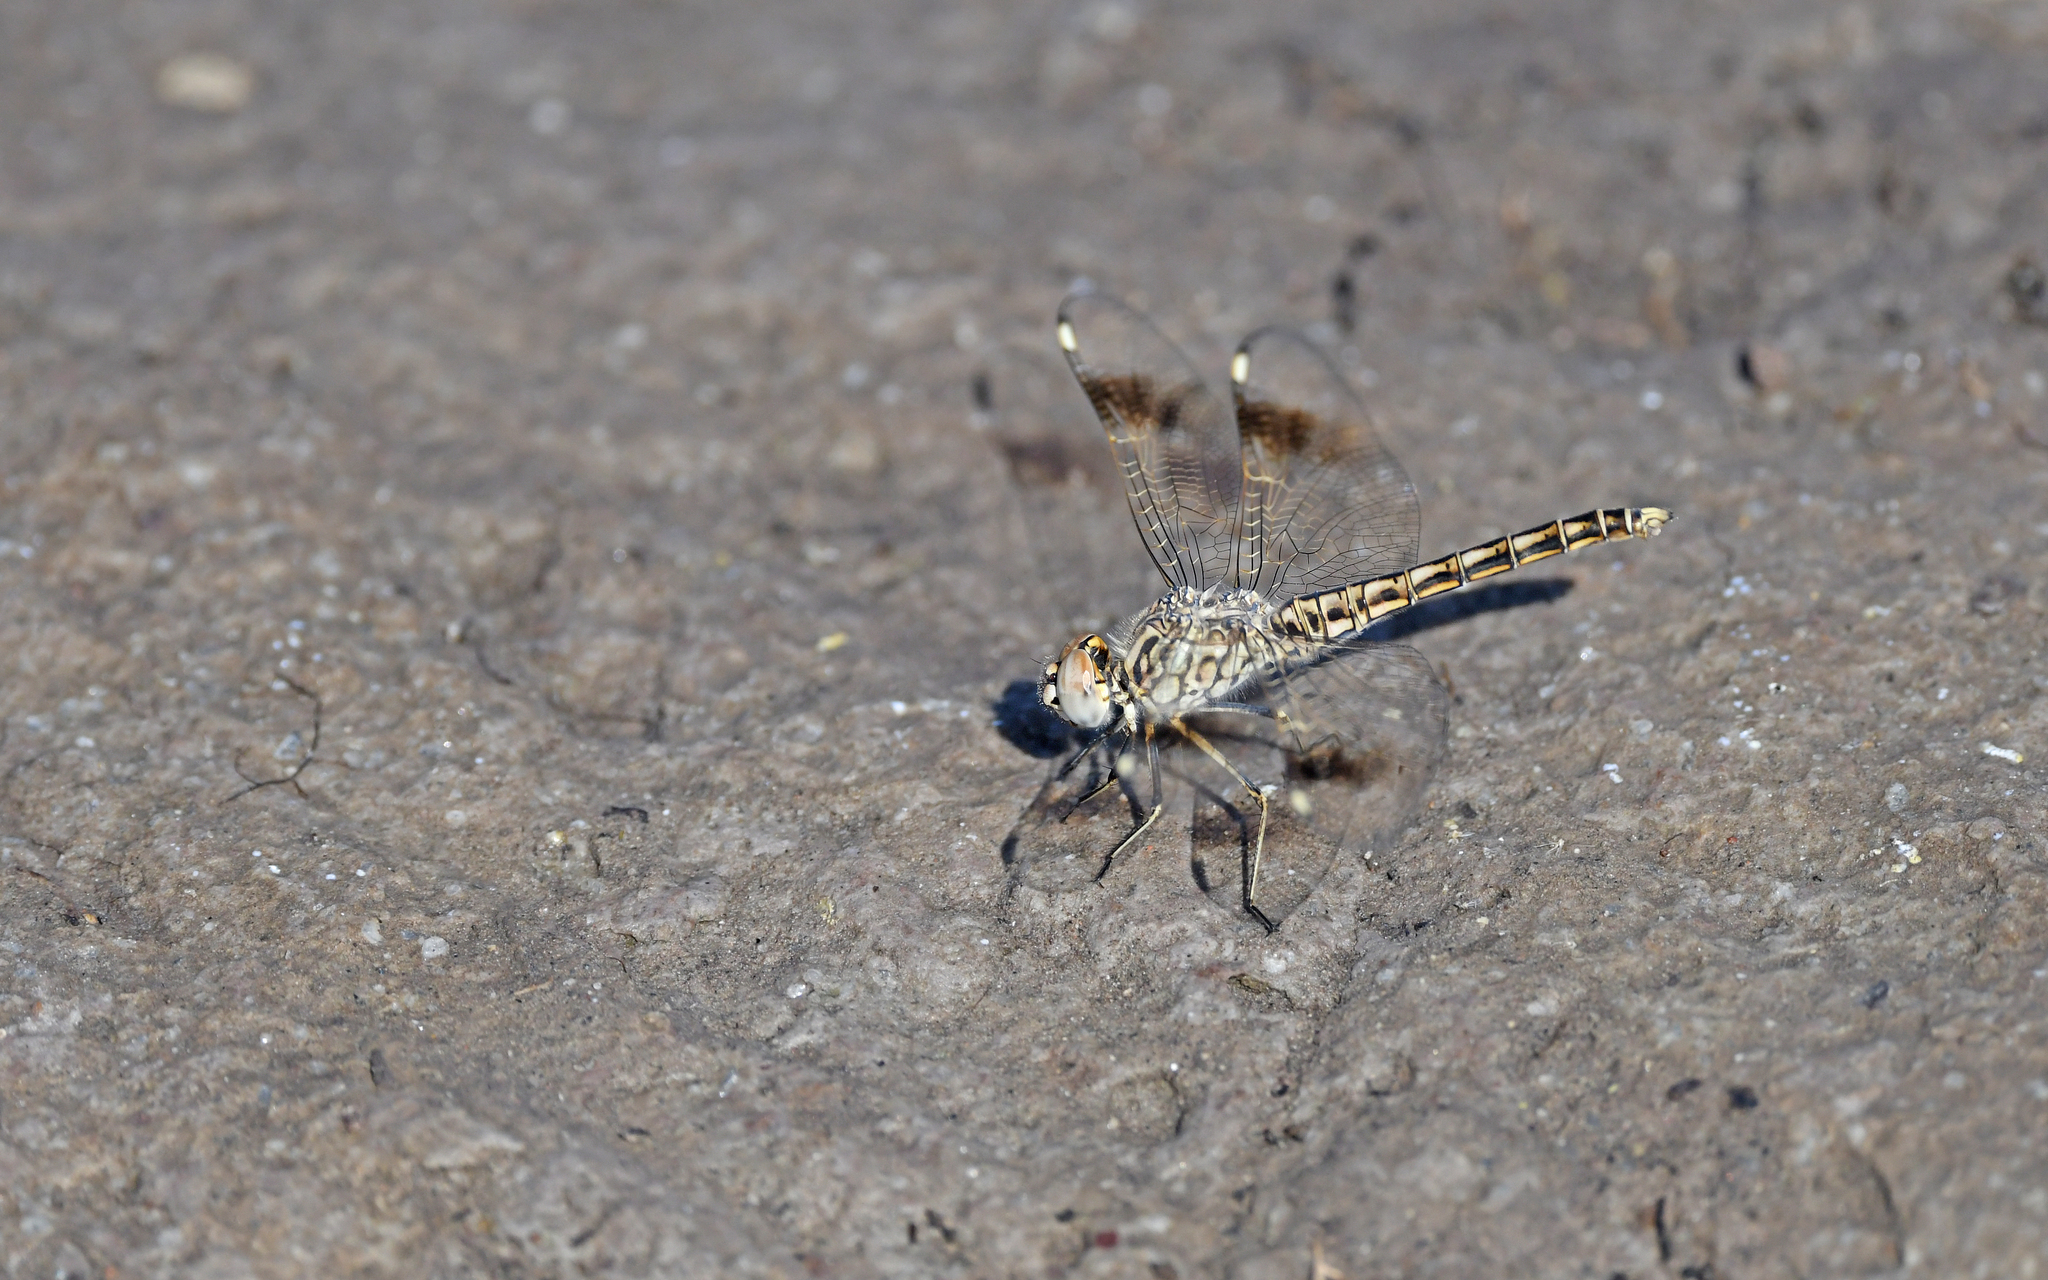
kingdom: Animalia
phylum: Arthropoda
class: Insecta
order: Odonata
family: Libellulidae
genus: Brachythemis
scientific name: Brachythemis impartita
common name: Banded groundling
